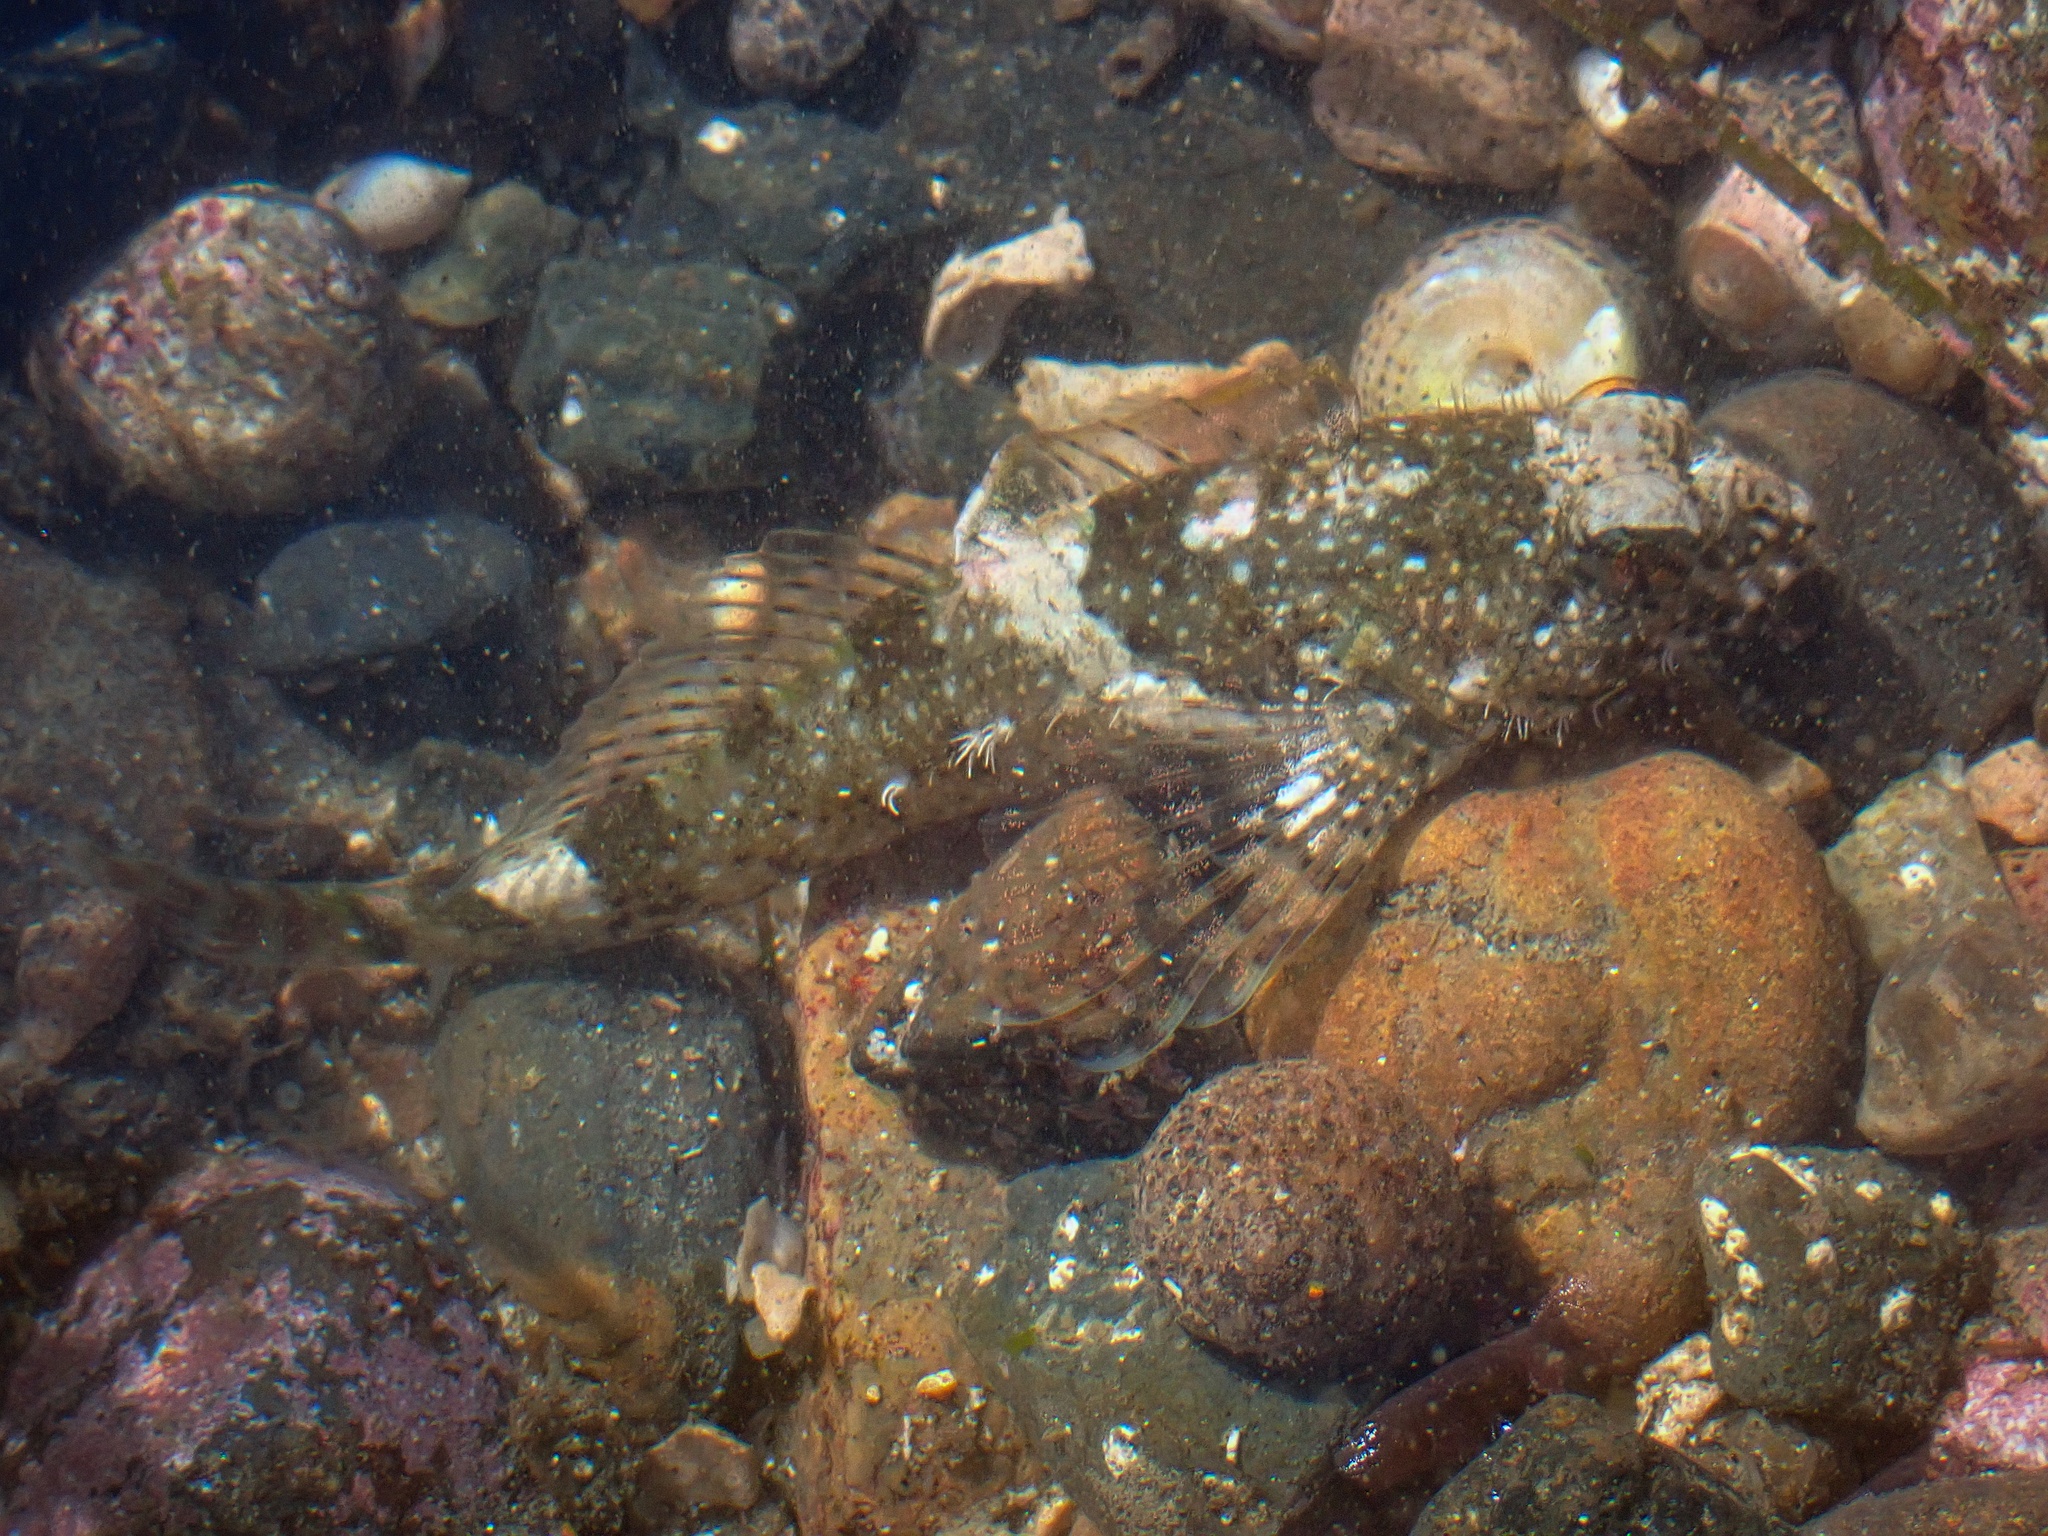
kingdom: Animalia
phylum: Chordata
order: Scorpaeniformes
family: Cottidae
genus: Clinocottus
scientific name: Clinocottus analis
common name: Woolly sculpin
